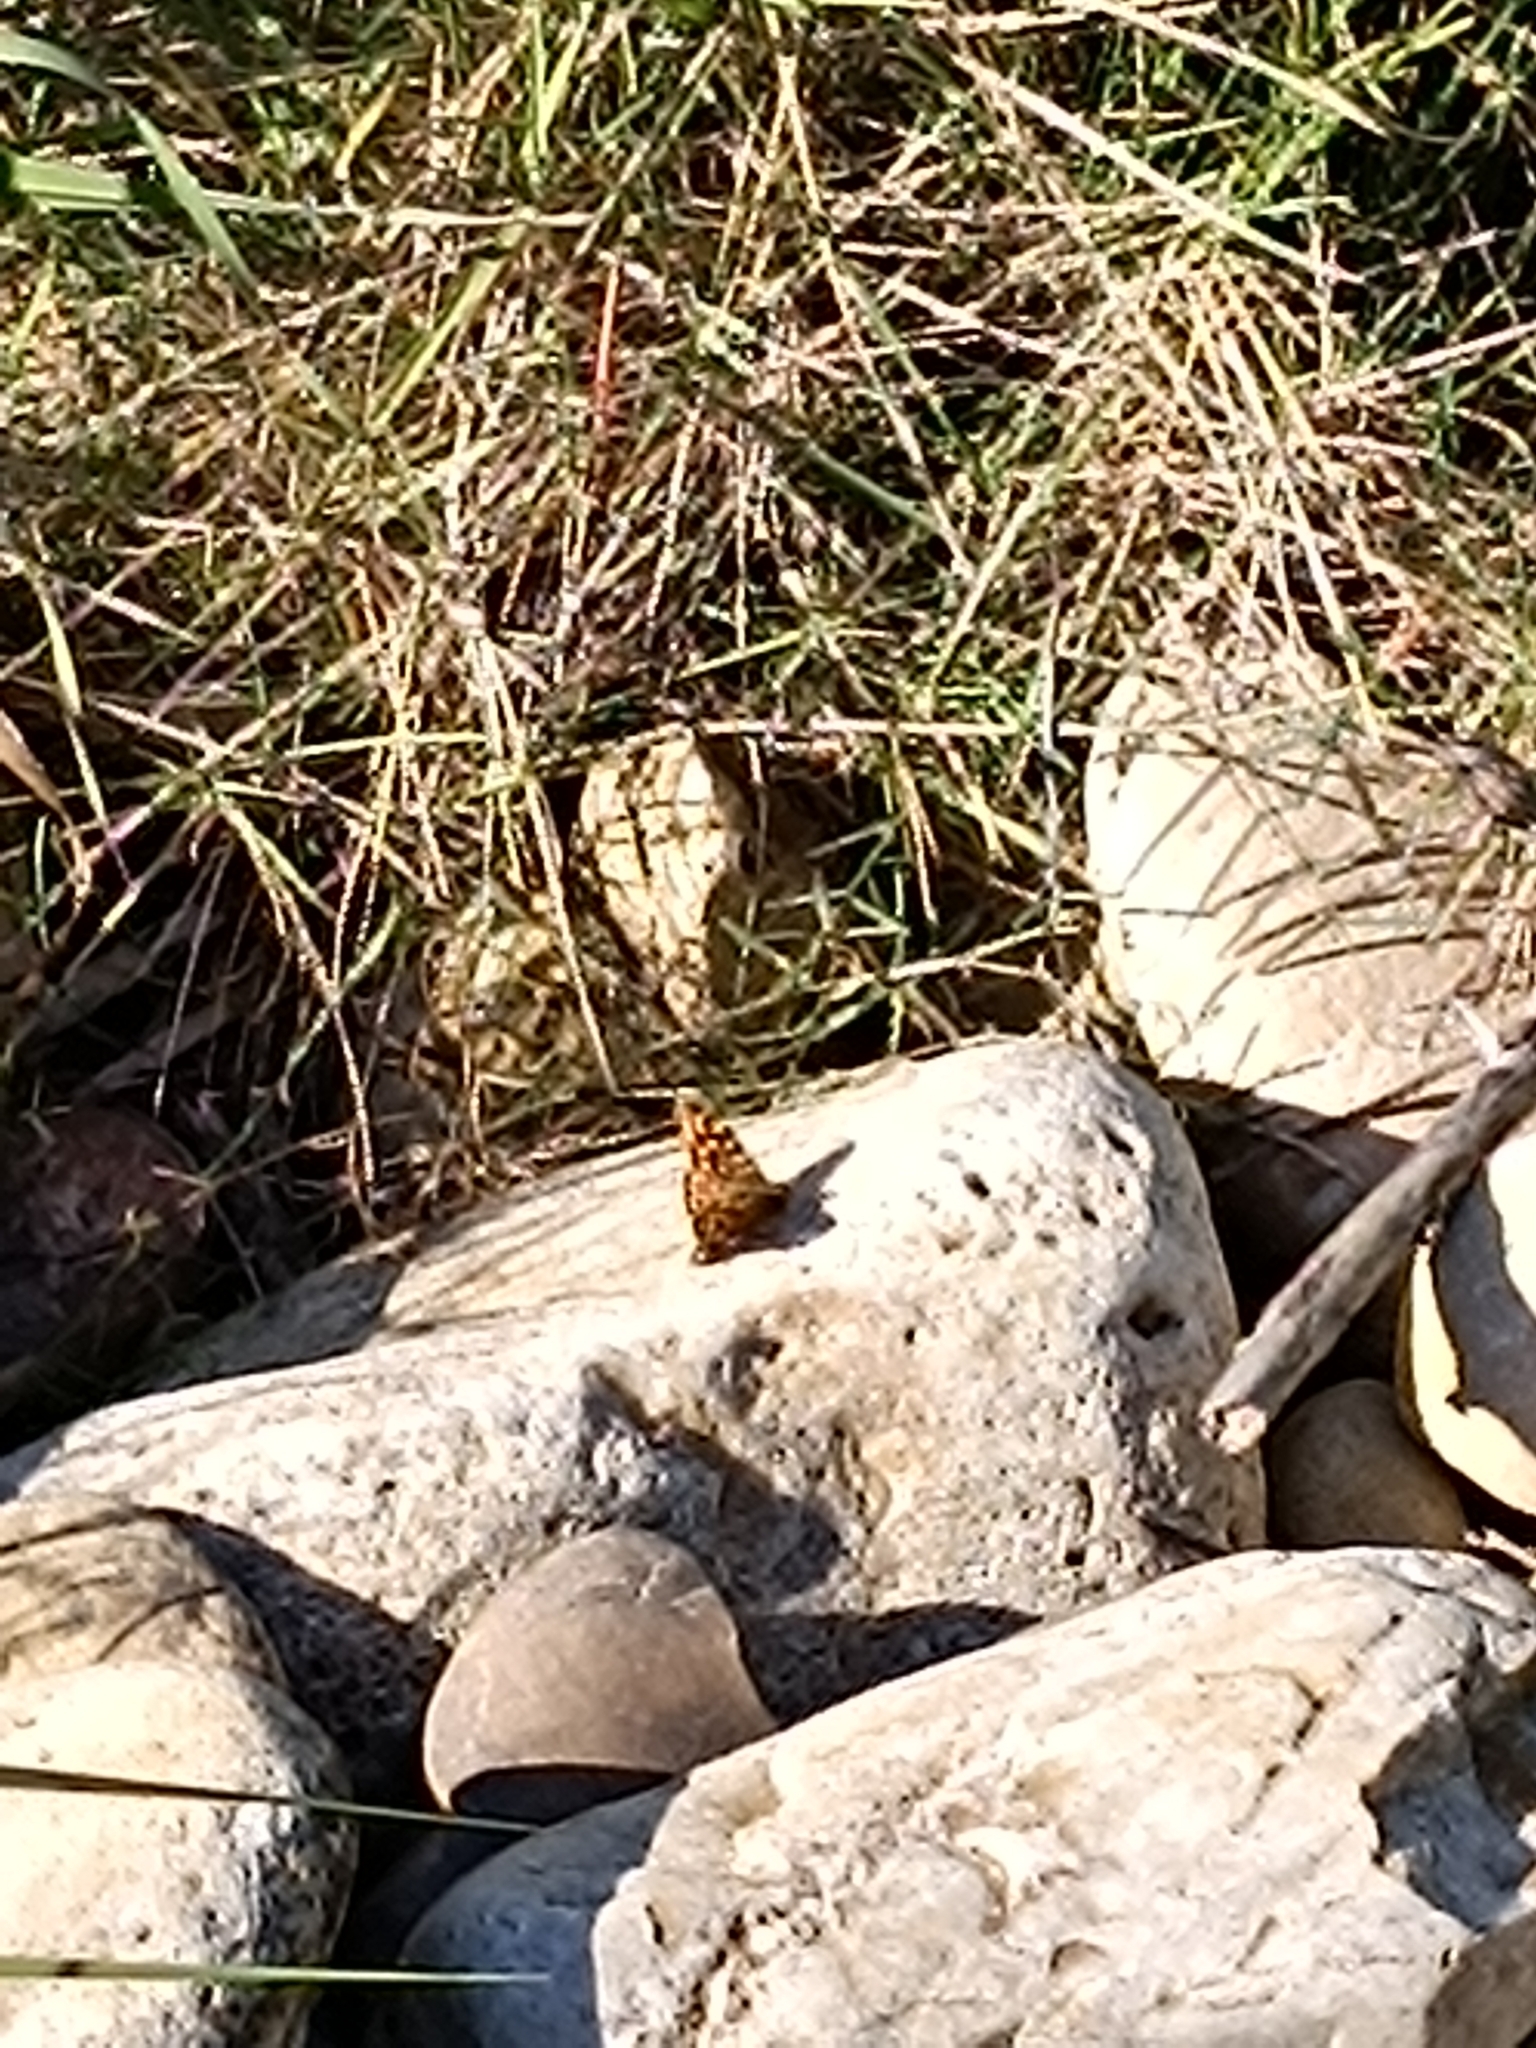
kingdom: Animalia
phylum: Arthropoda
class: Insecta
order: Lepidoptera
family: Nymphalidae
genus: Pararge
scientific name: Pararge aegeria
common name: Speckled wood
